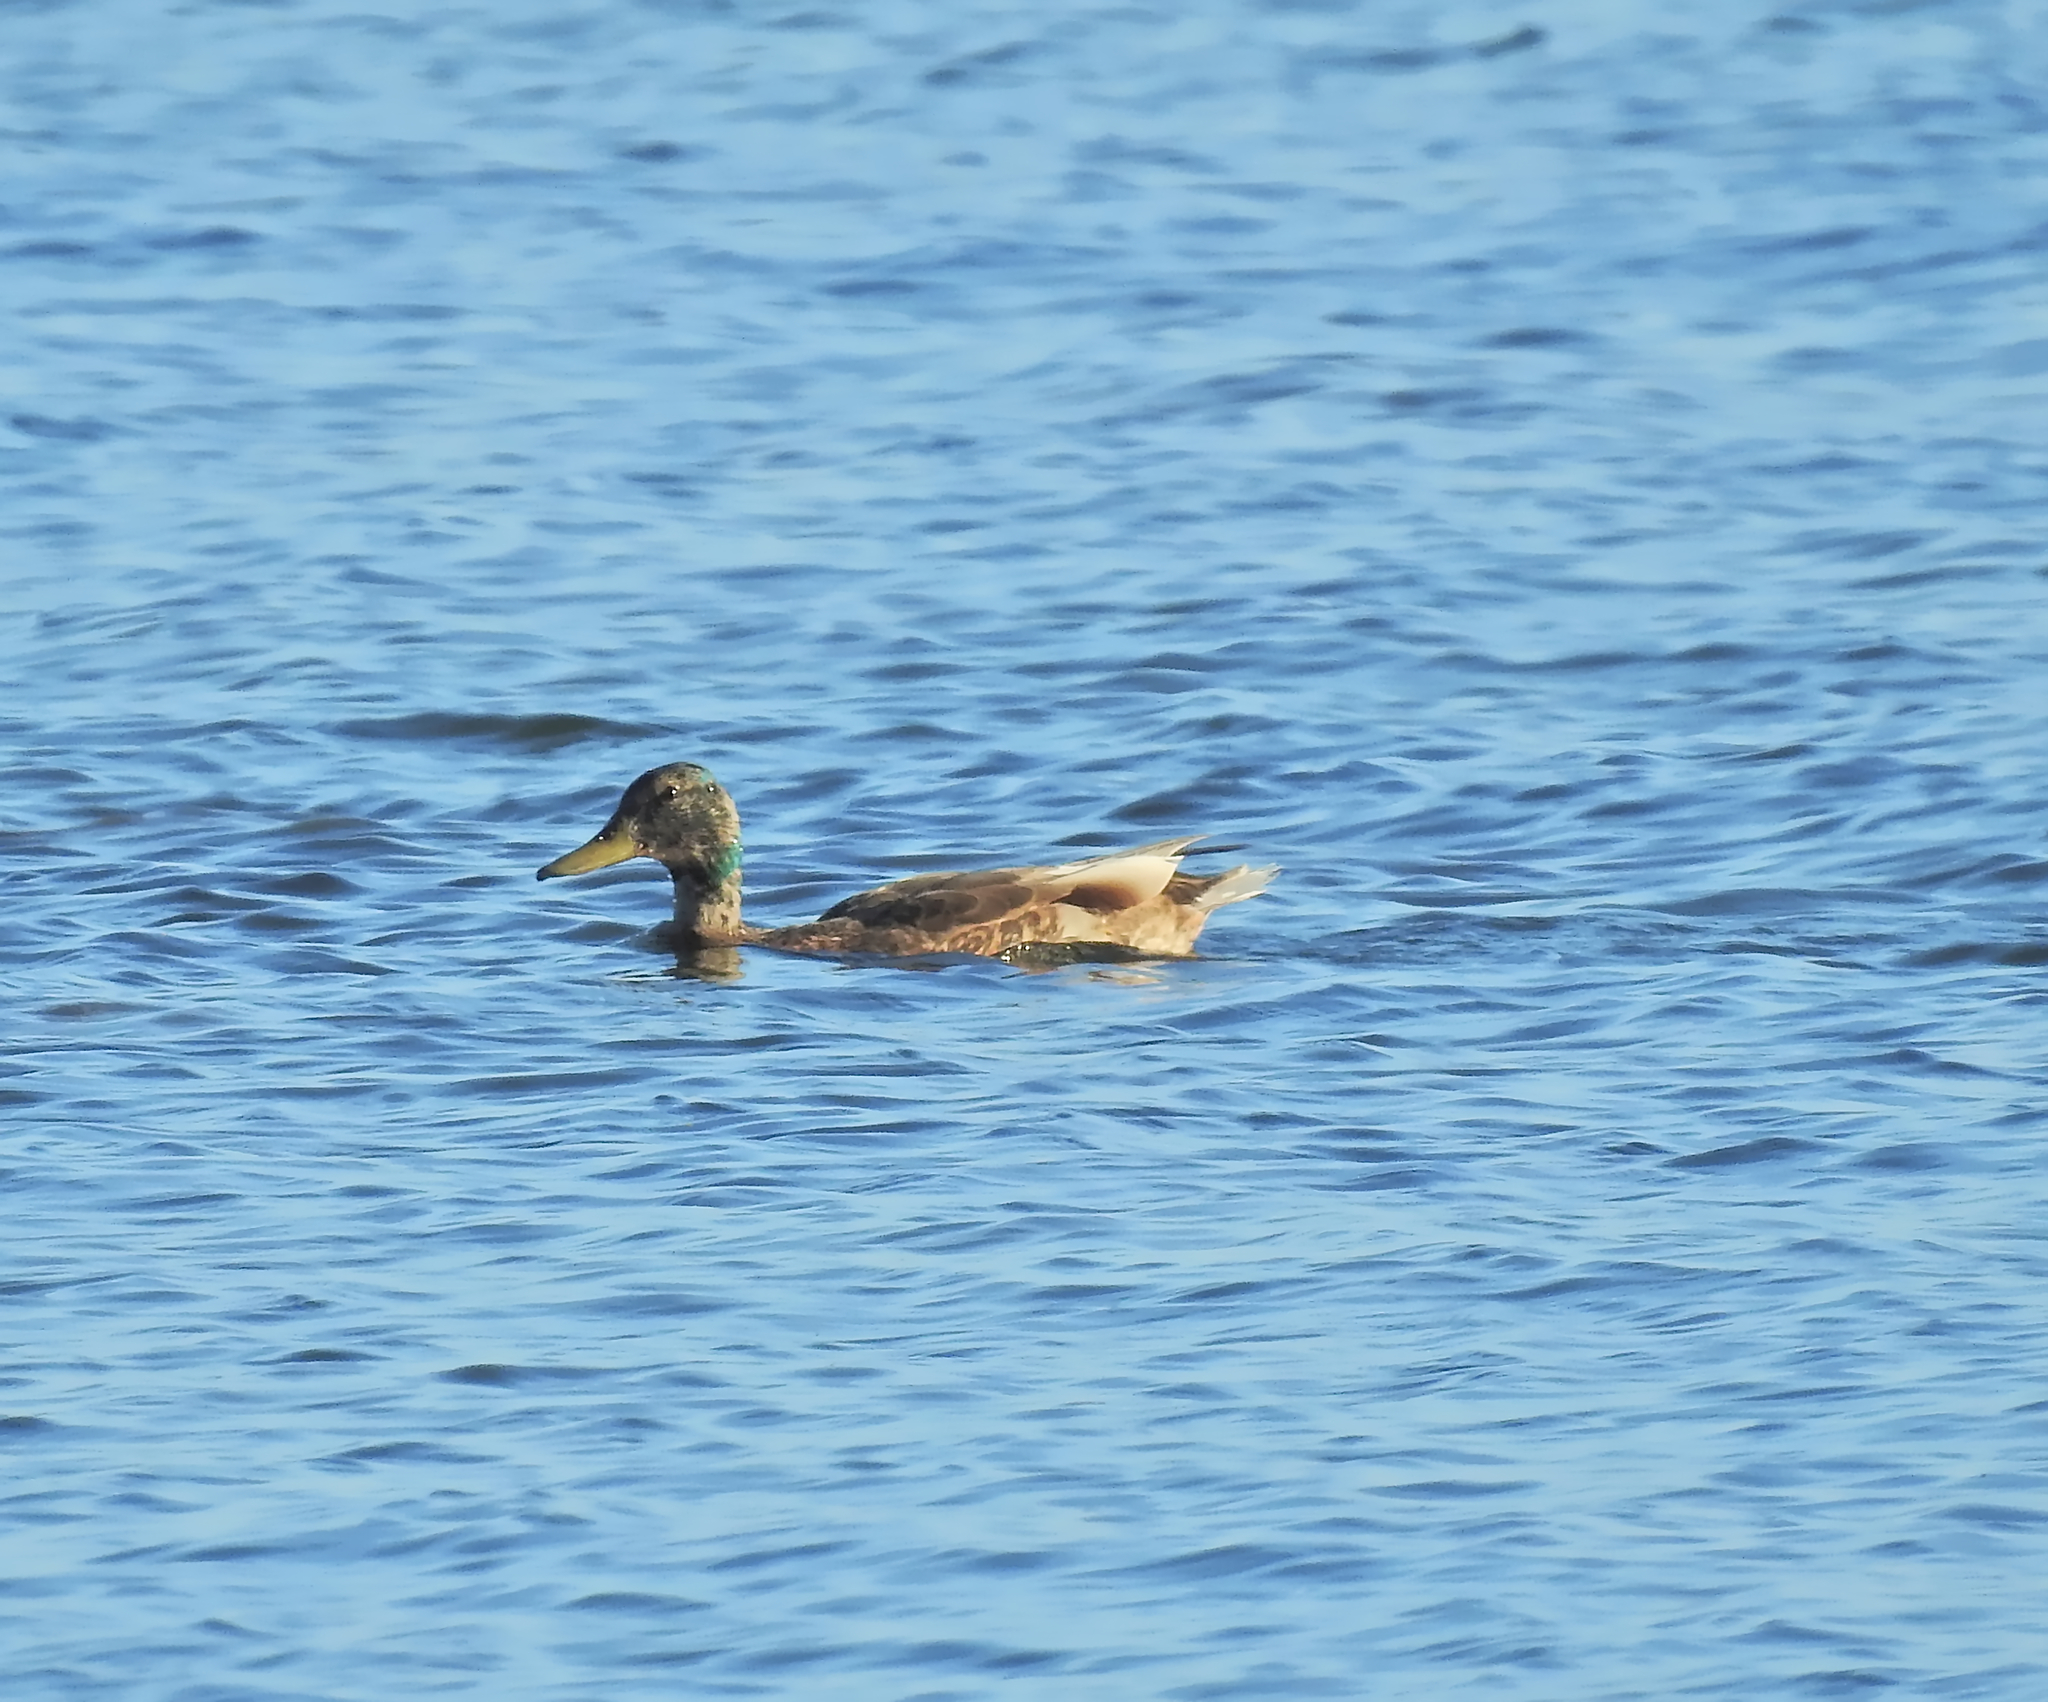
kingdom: Animalia
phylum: Chordata
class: Aves
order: Anseriformes
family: Anatidae
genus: Anas
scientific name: Anas platyrhynchos
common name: Mallard
